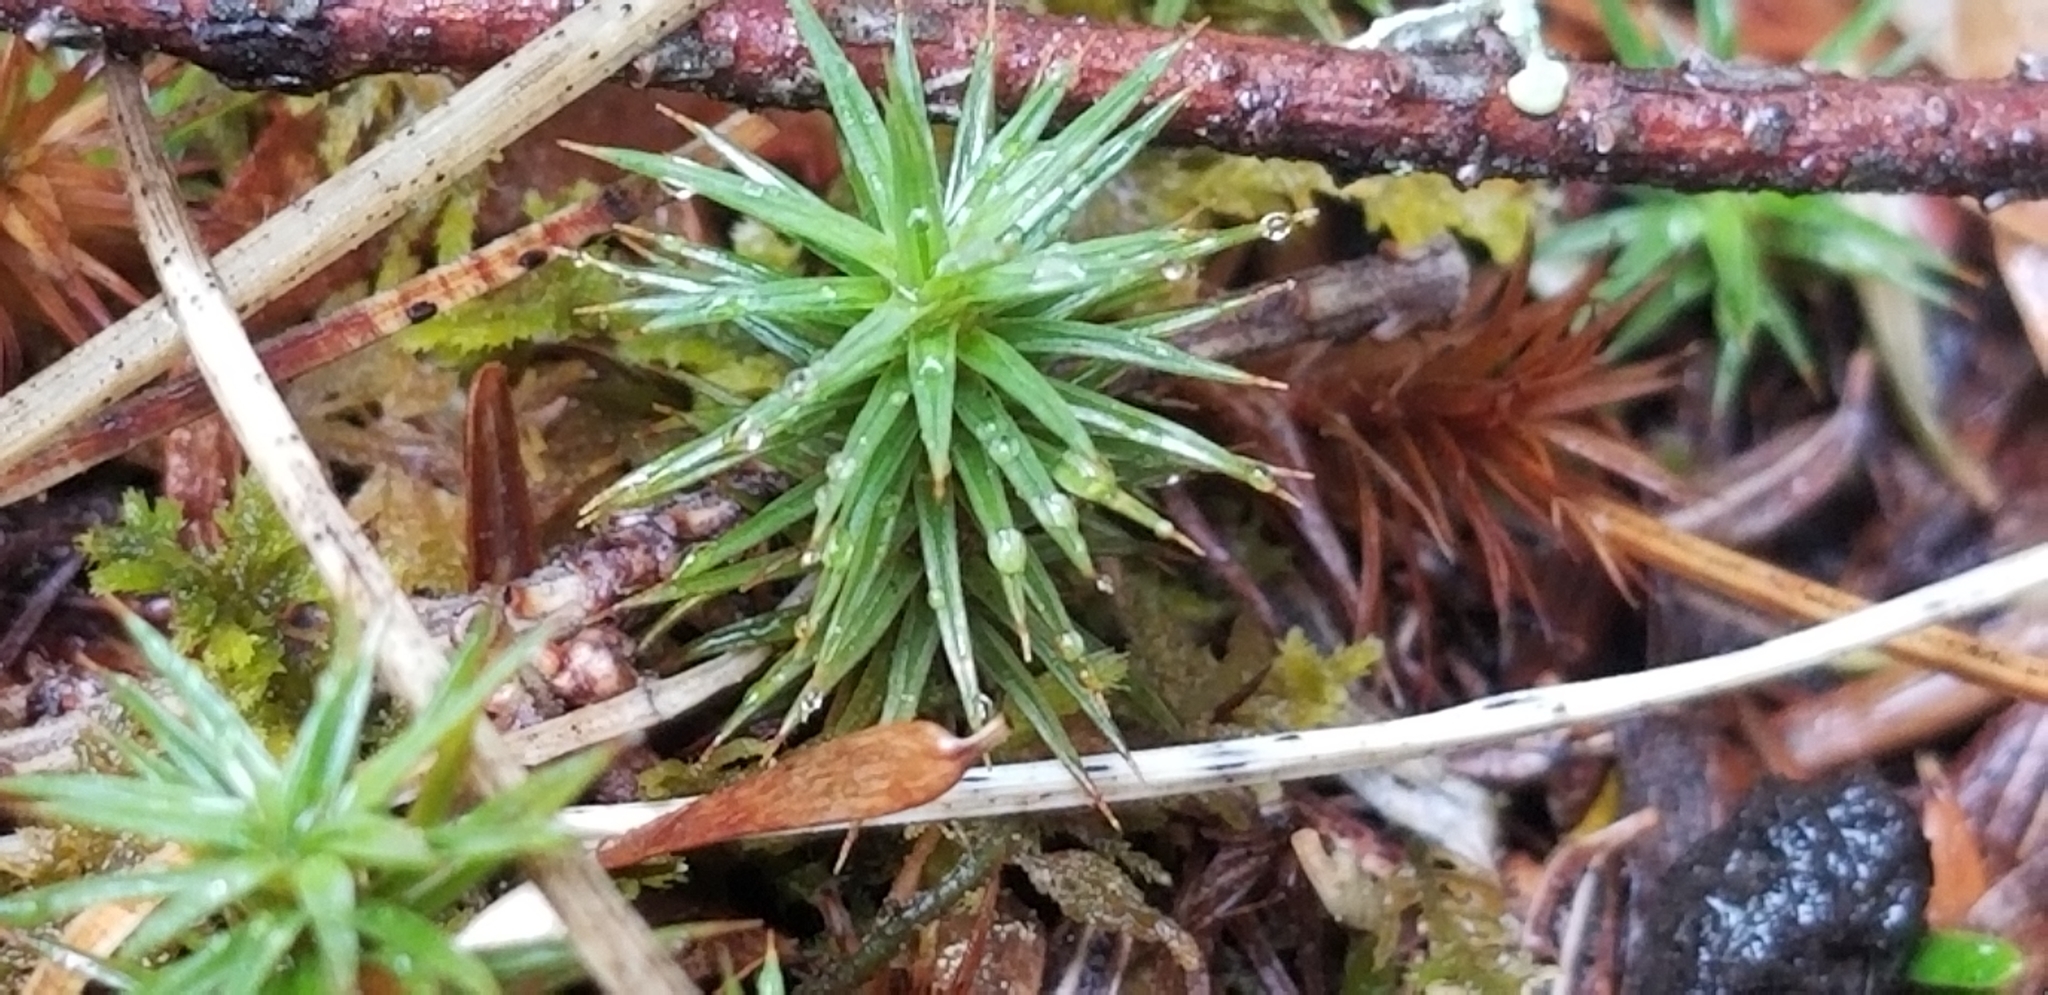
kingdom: Plantae
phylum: Bryophyta
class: Polytrichopsida
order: Polytrichales
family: Polytrichaceae
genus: Polytrichum
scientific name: Polytrichum juniperinum
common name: Juniper haircap moss
